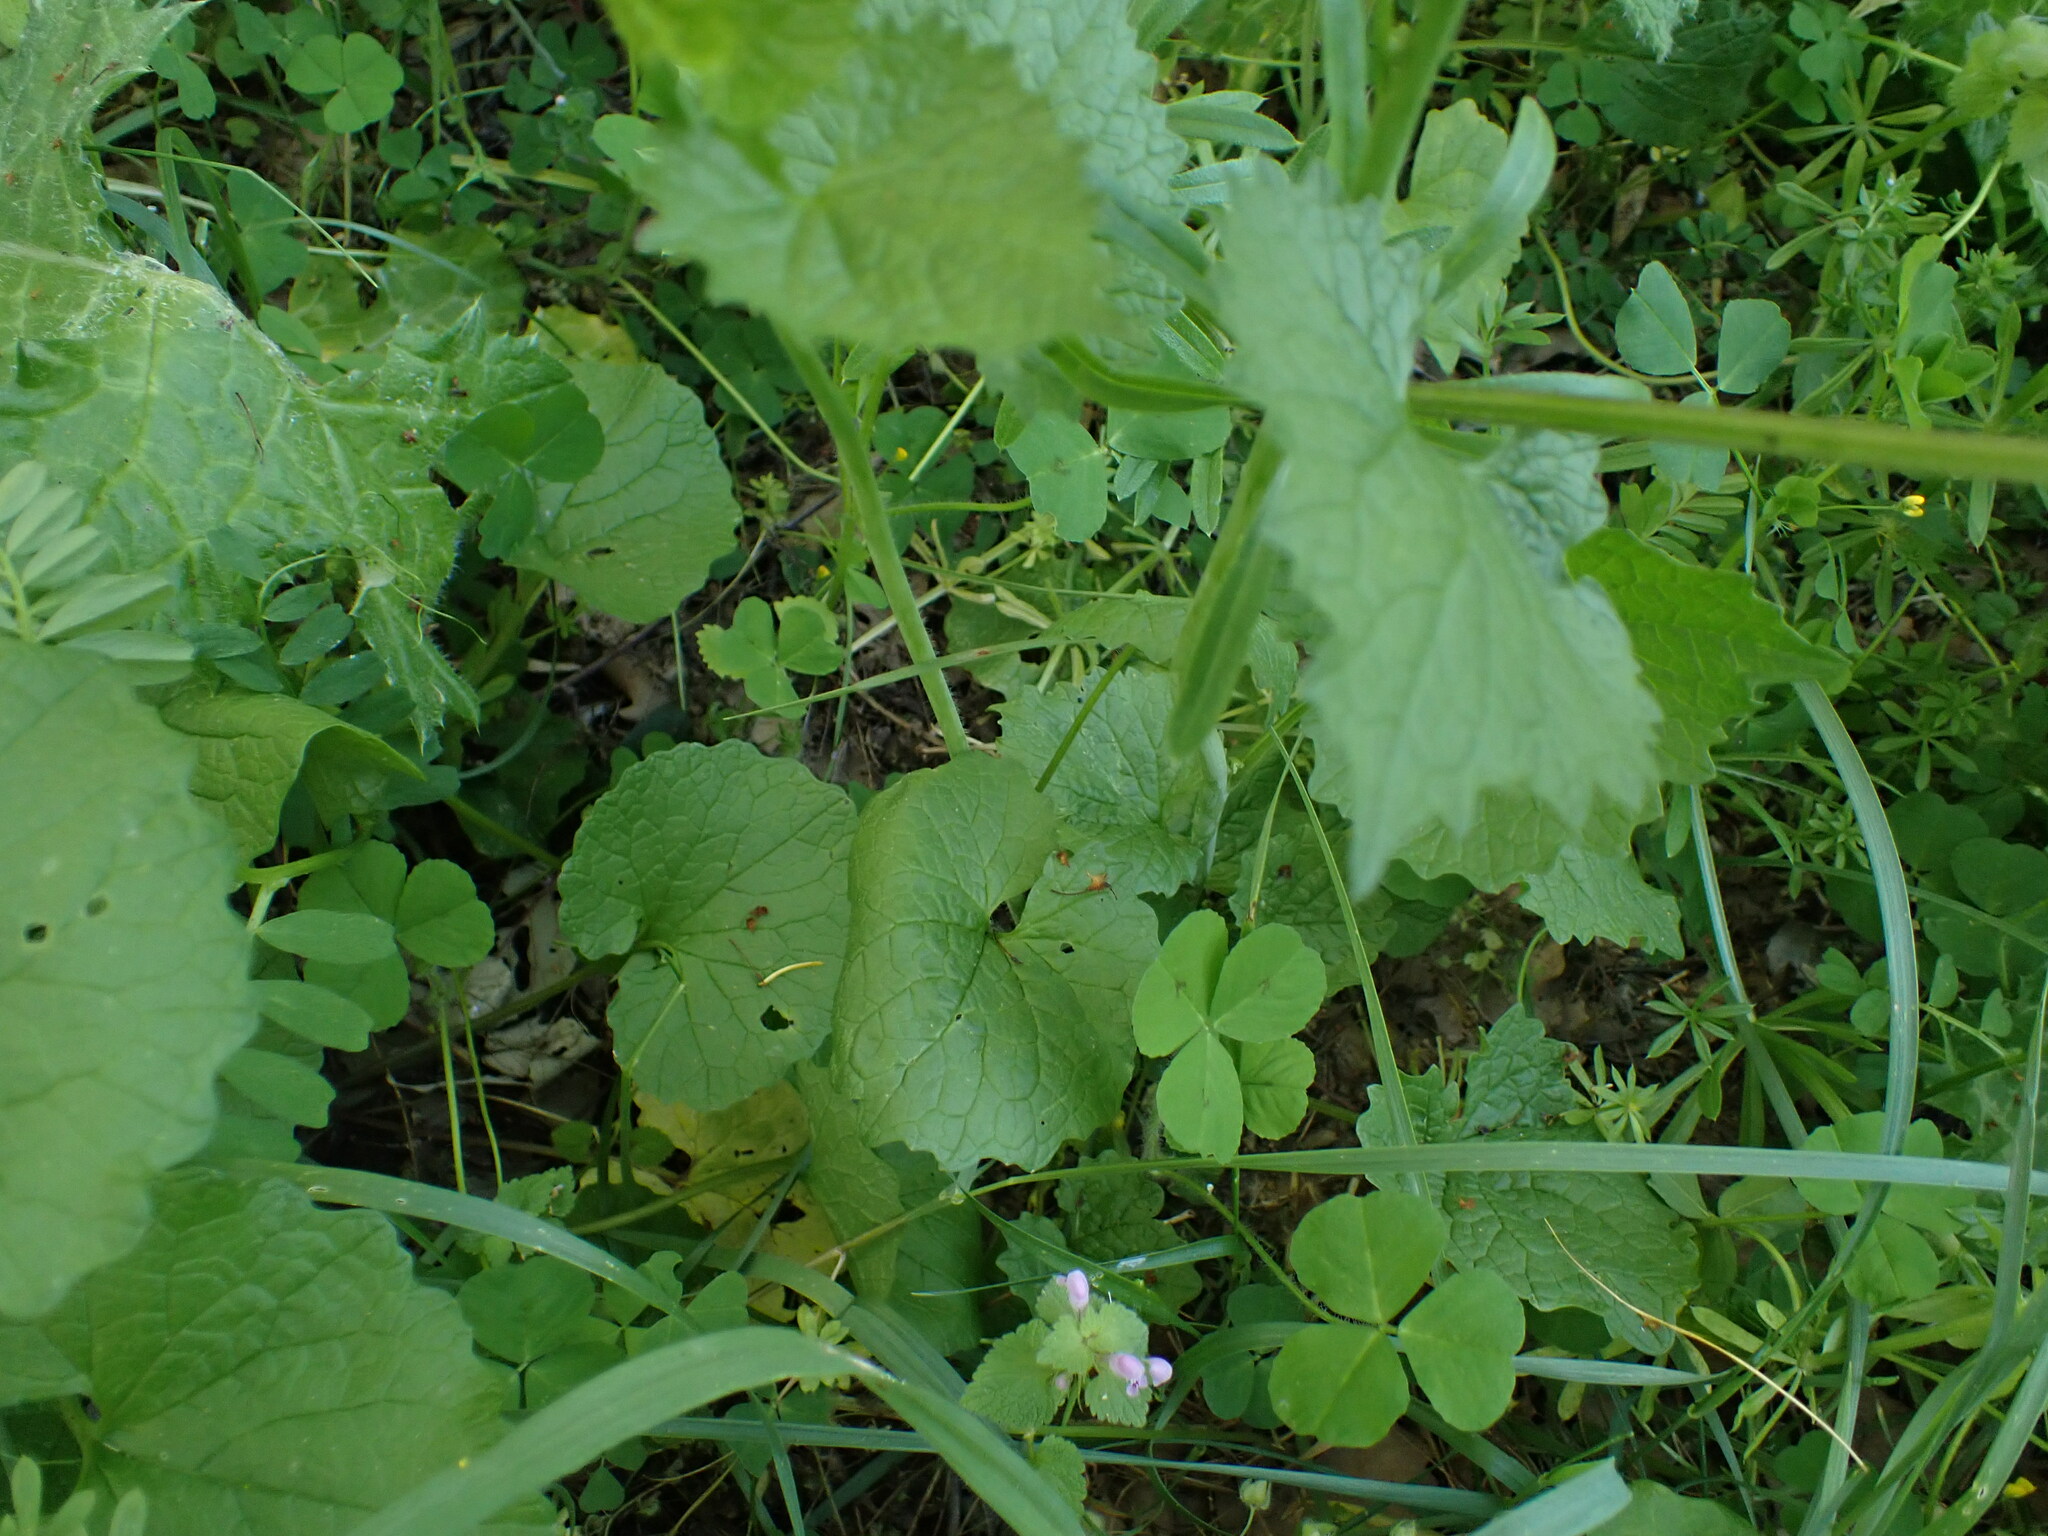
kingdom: Plantae
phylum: Tracheophyta
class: Magnoliopsida
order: Brassicales
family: Brassicaceae
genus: Alliaria
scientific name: Alliaria petiolata
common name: Garlic mustard
